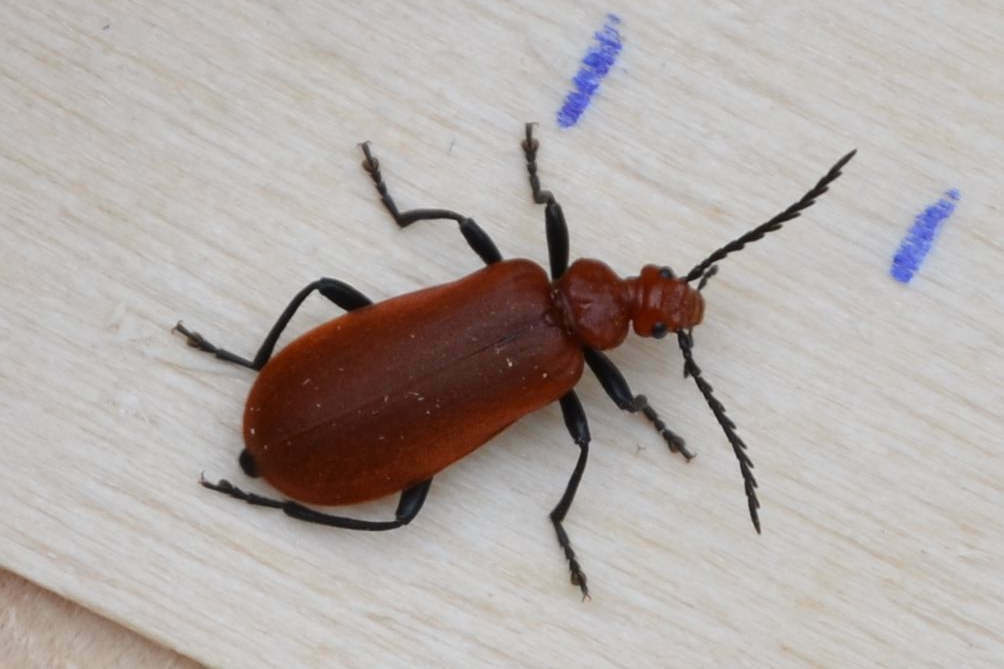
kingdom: Animalia
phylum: Arthropoda
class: Insecta
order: Coleoptera
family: Pyrochroidae
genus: Pyrochroa
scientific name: Pyrochroa serraticornis
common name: Red-headed cardinal beetle
